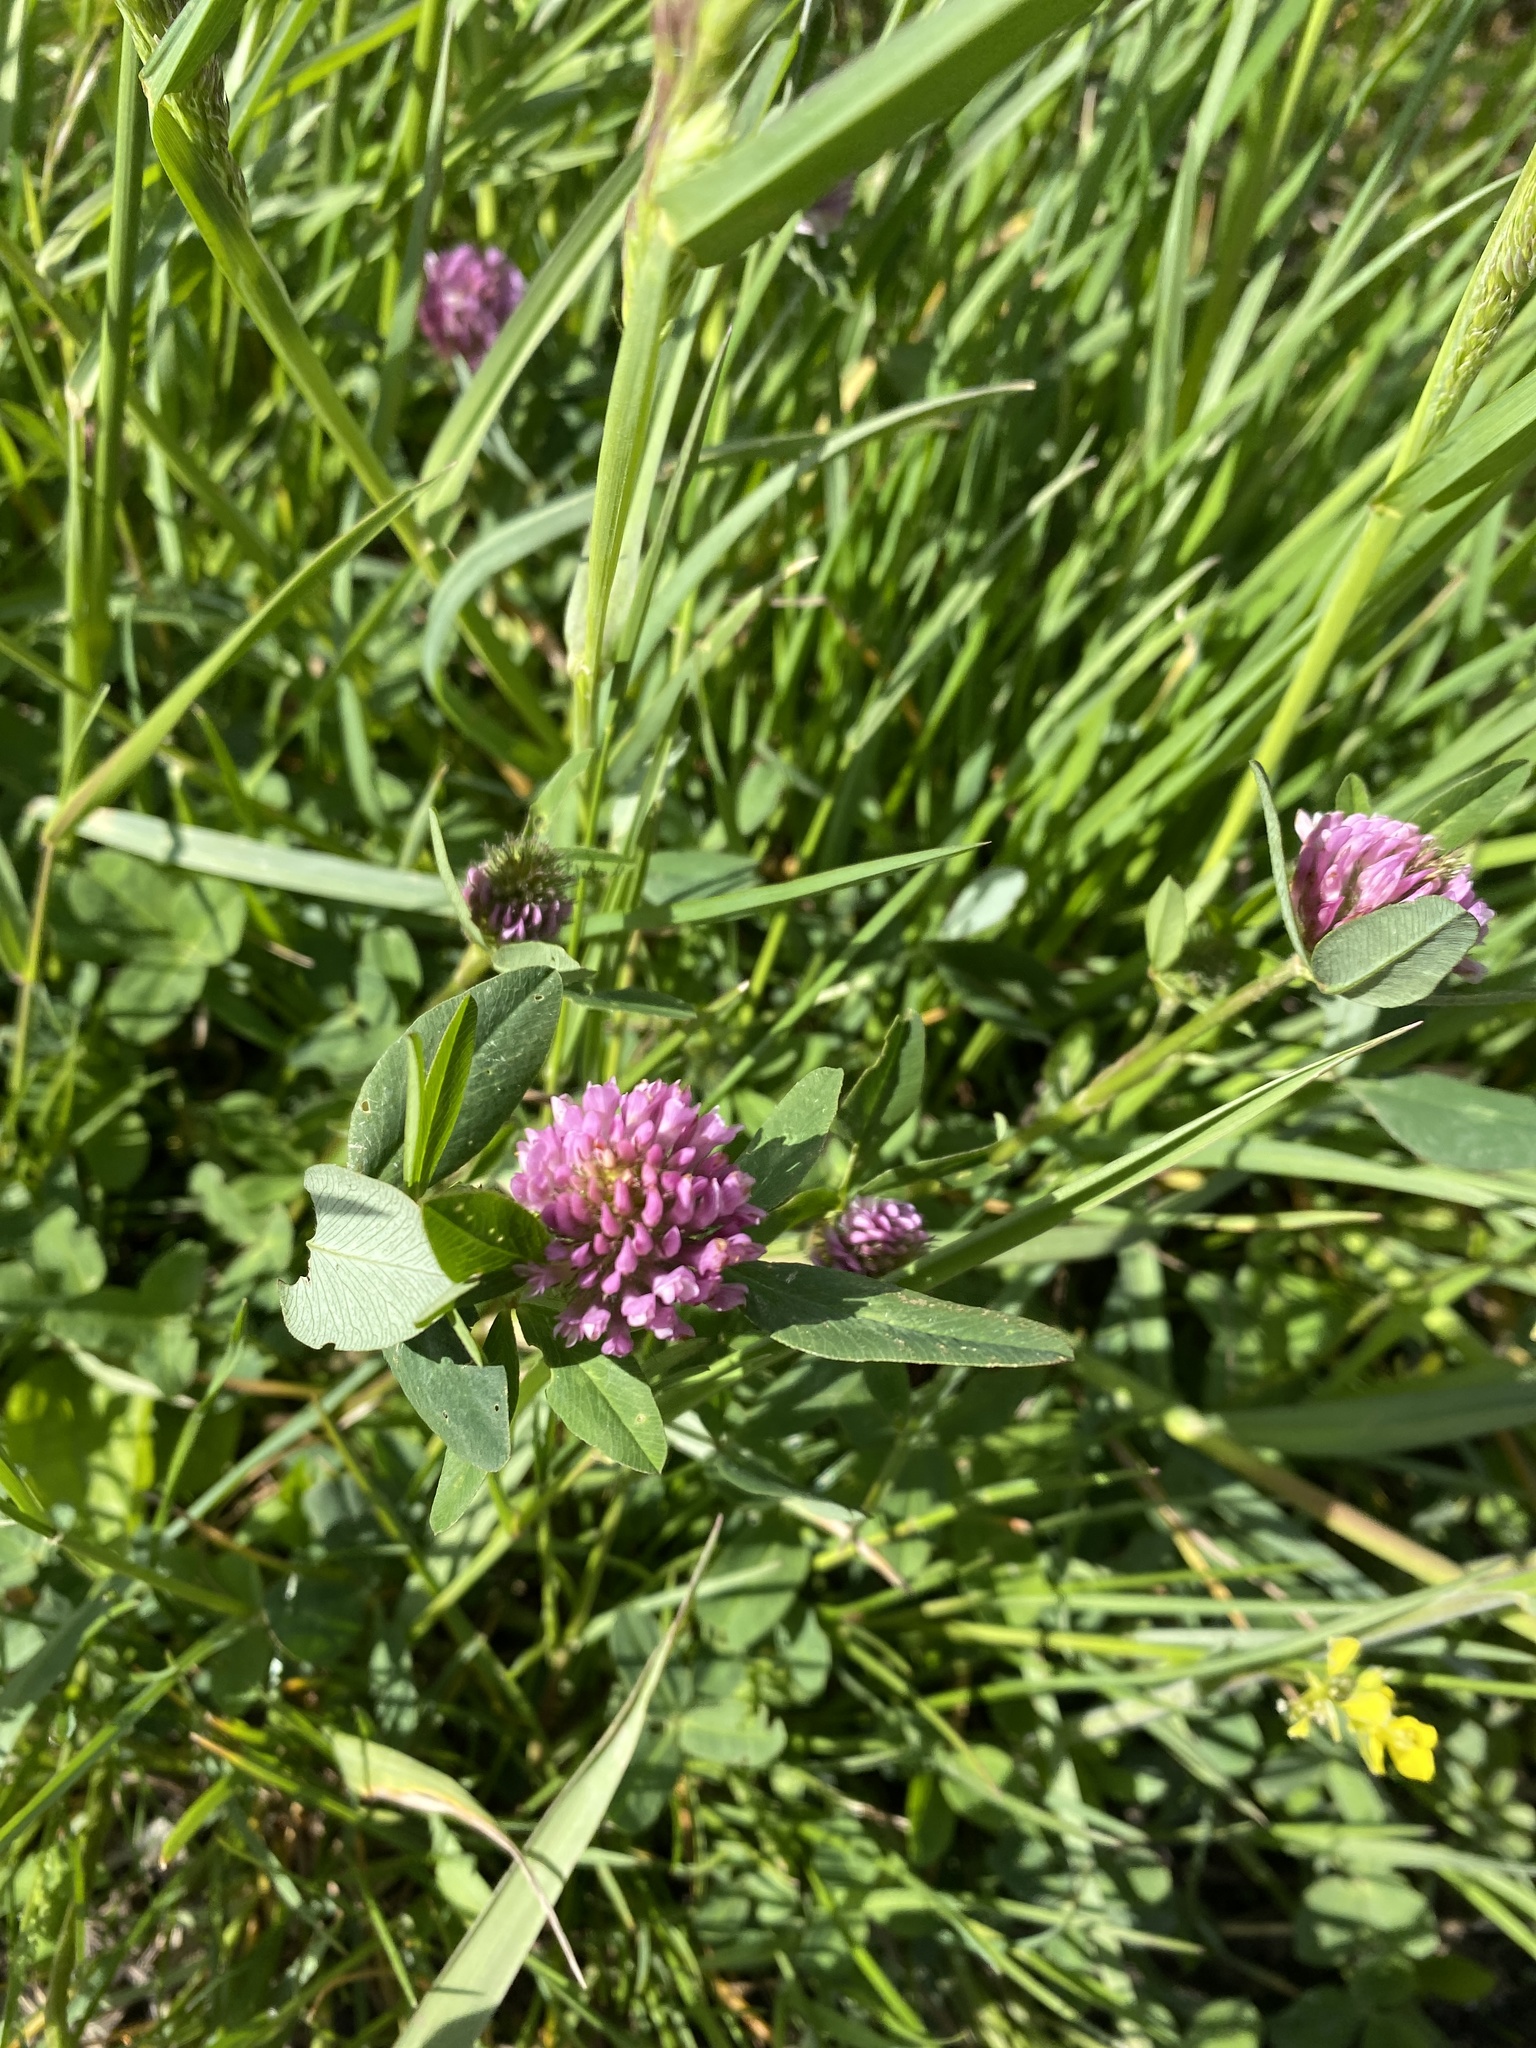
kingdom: Plantae
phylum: Tracheophyta
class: Magnoliopsida
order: Fabales
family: Fabaceae
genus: Trifolium
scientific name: Trifolium pratense
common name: Red clover
